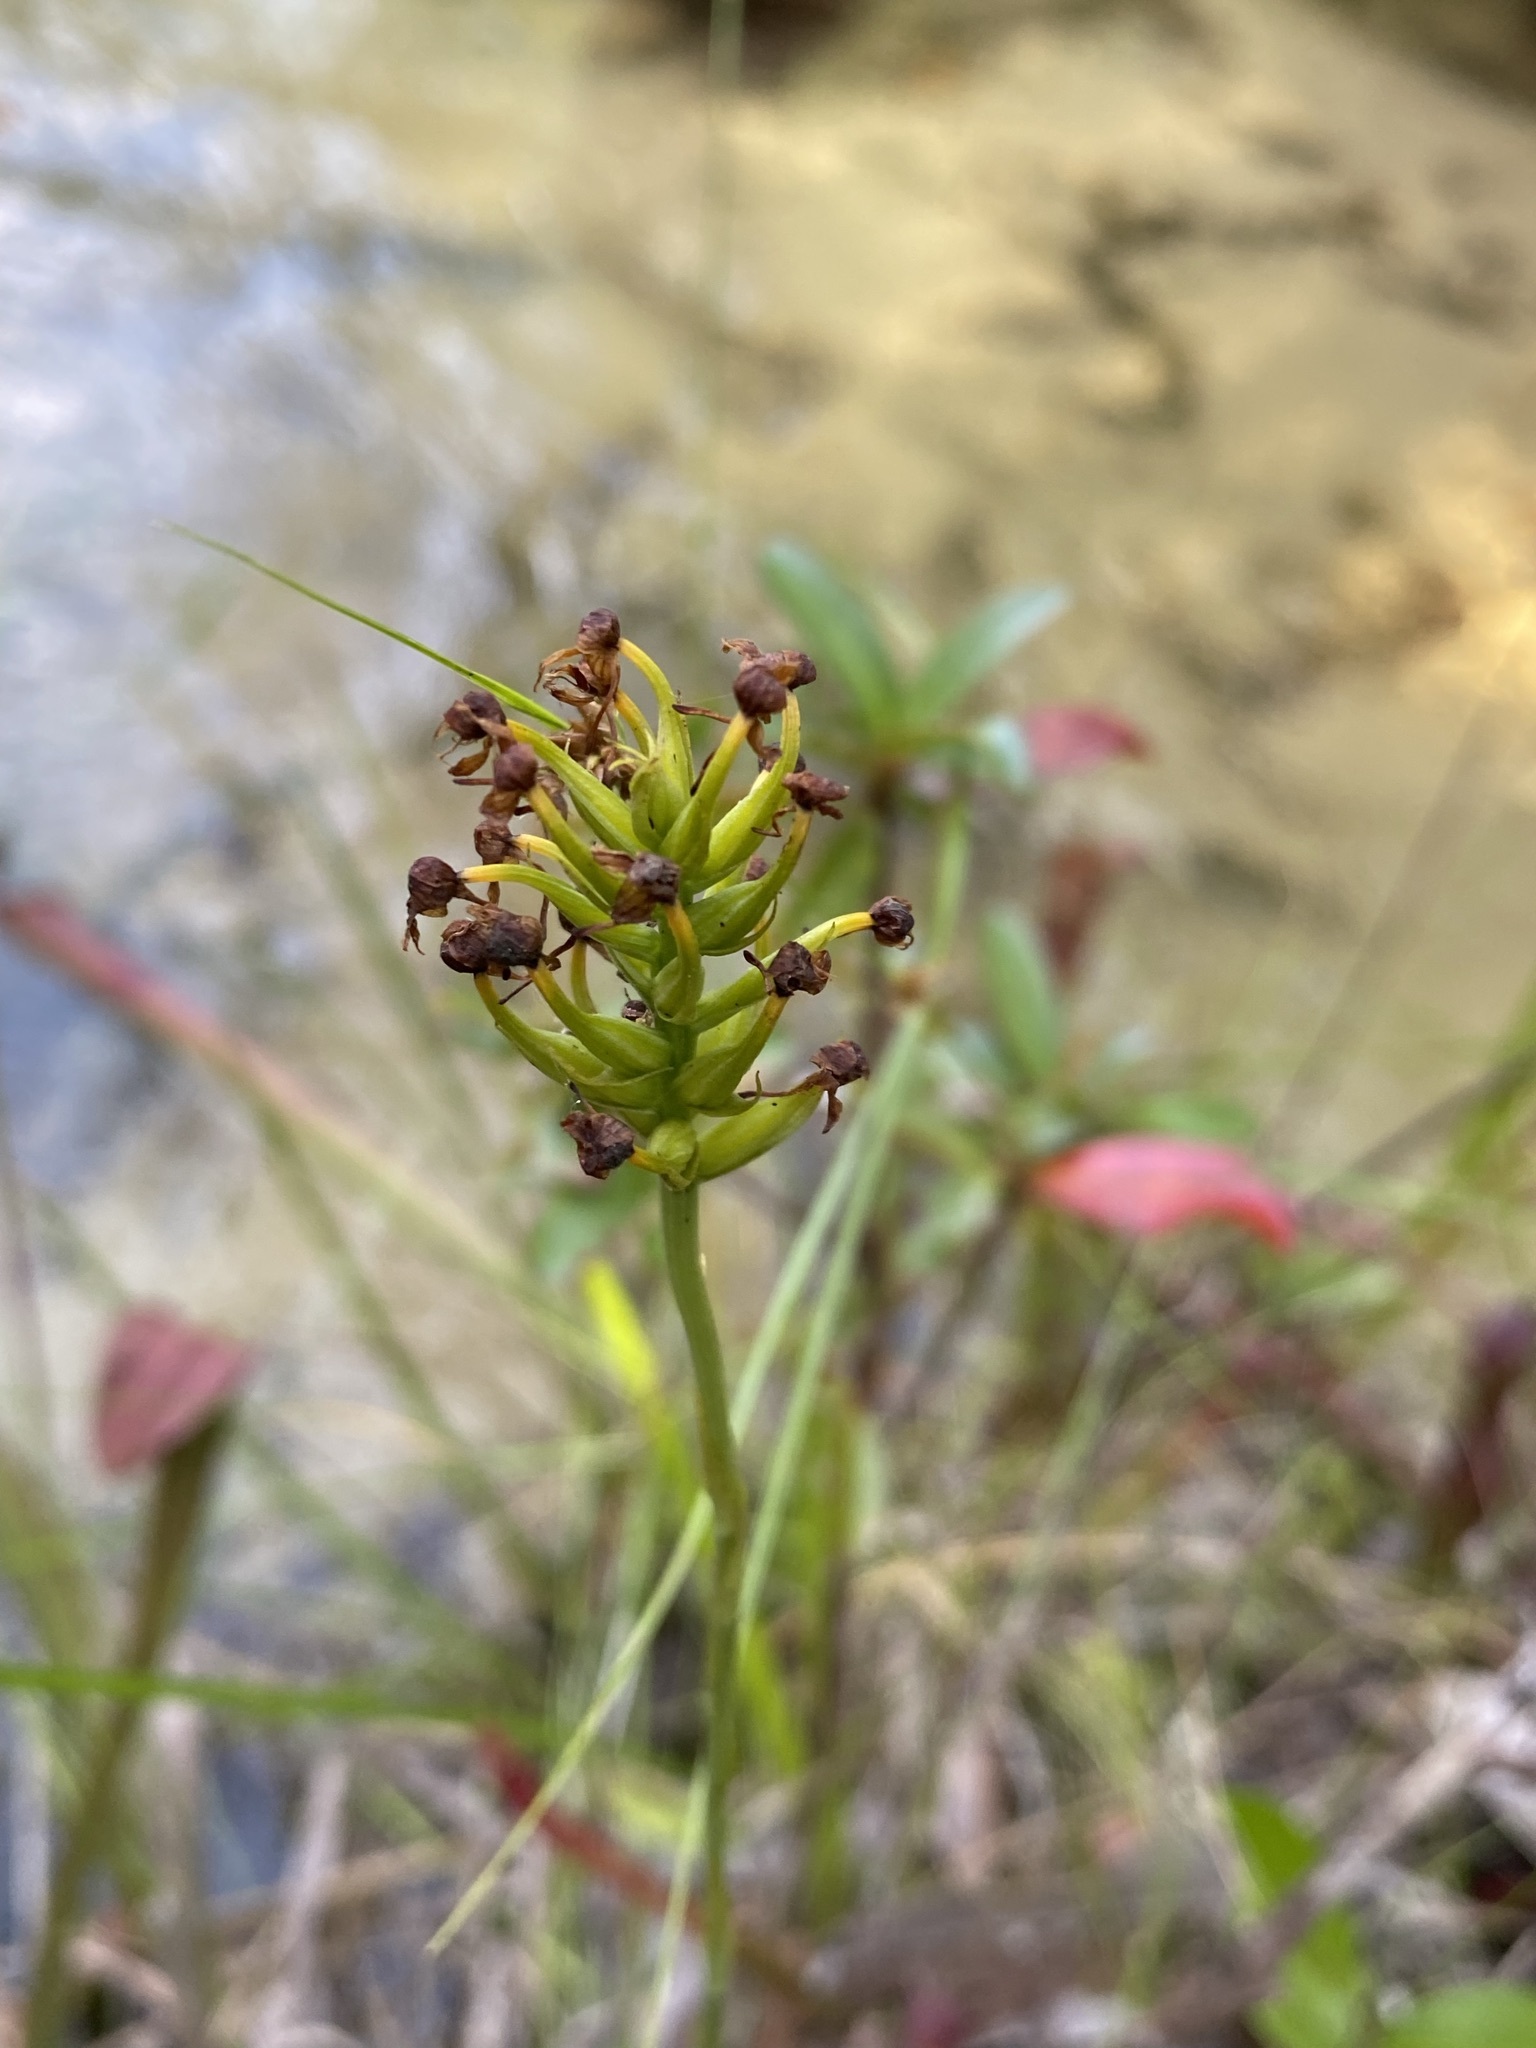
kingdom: Plantae
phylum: Tracheophyta
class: Liliopsida
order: Asparagales
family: Orchidaceae
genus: Platanthera
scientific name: Platanthera cristata
